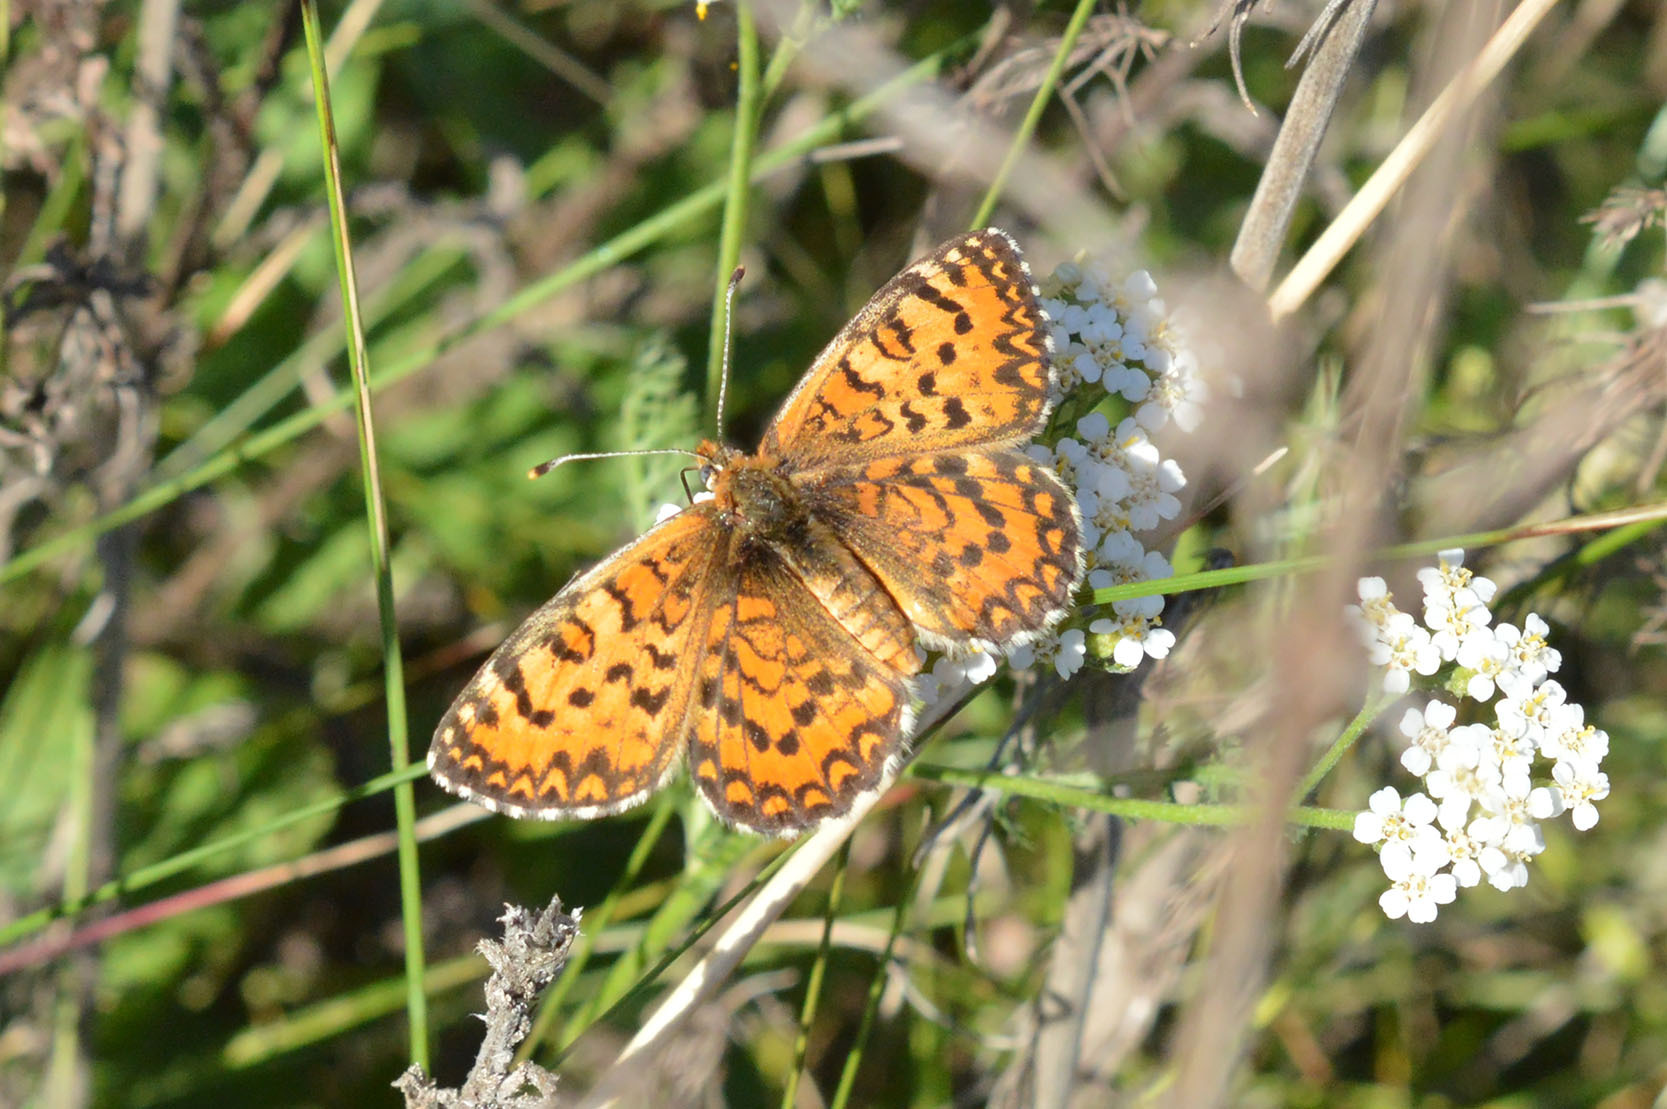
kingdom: Animalia
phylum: Arthropoda
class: Insecta
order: Lepidoptera
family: Nymphalidae
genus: Melitaea
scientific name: Melitaea trivia
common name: Lesser spotted fritillary
